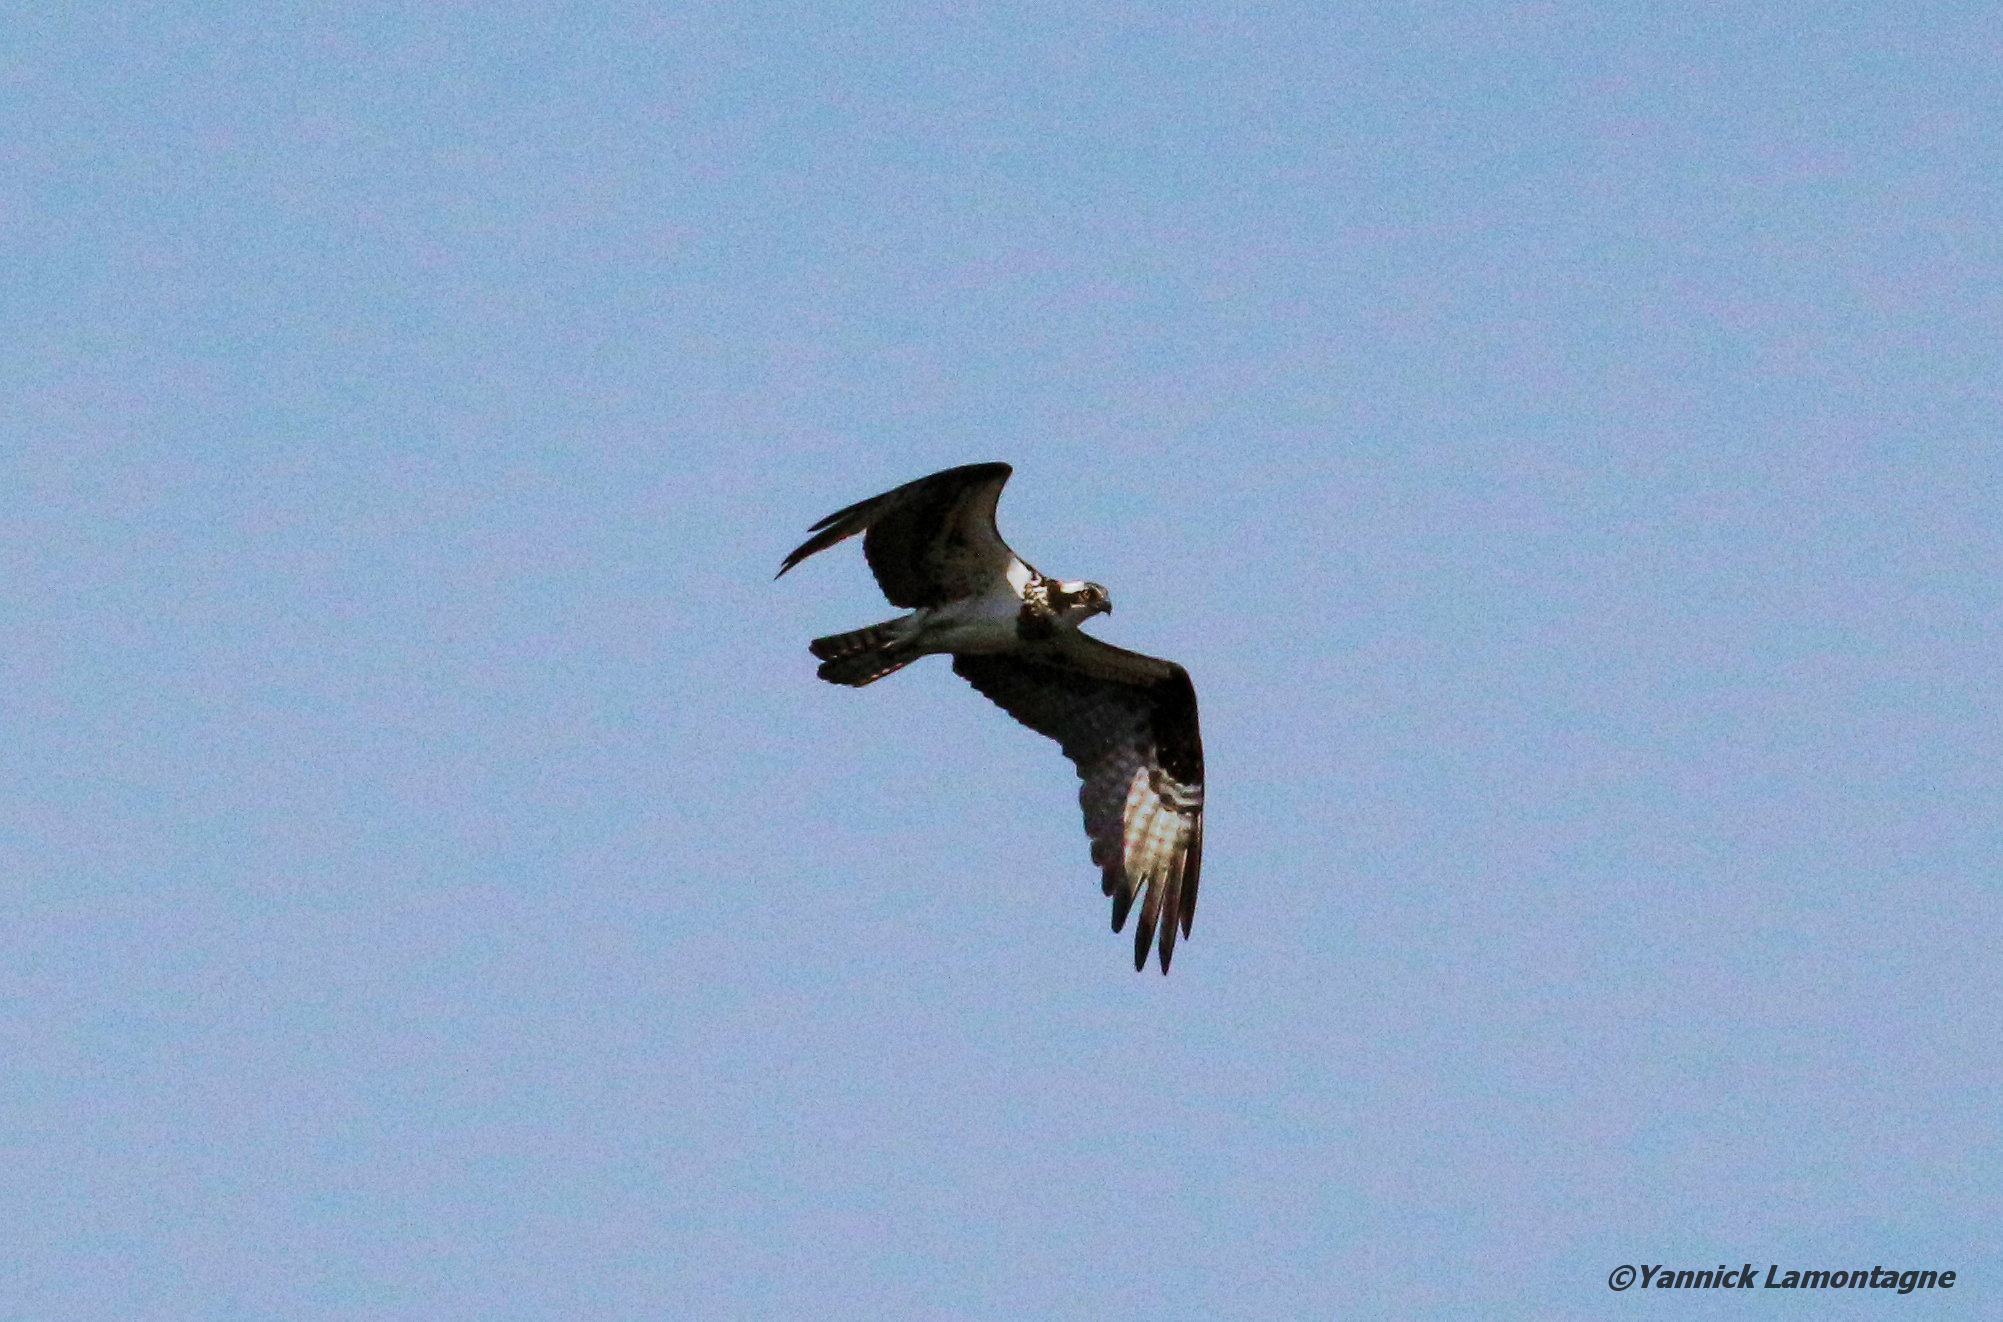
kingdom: Animalia
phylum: Chordata
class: Aves
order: Accipitriformes
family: Pandionidae
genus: Pandion
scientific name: Pandion haliaetus
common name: Osprey
